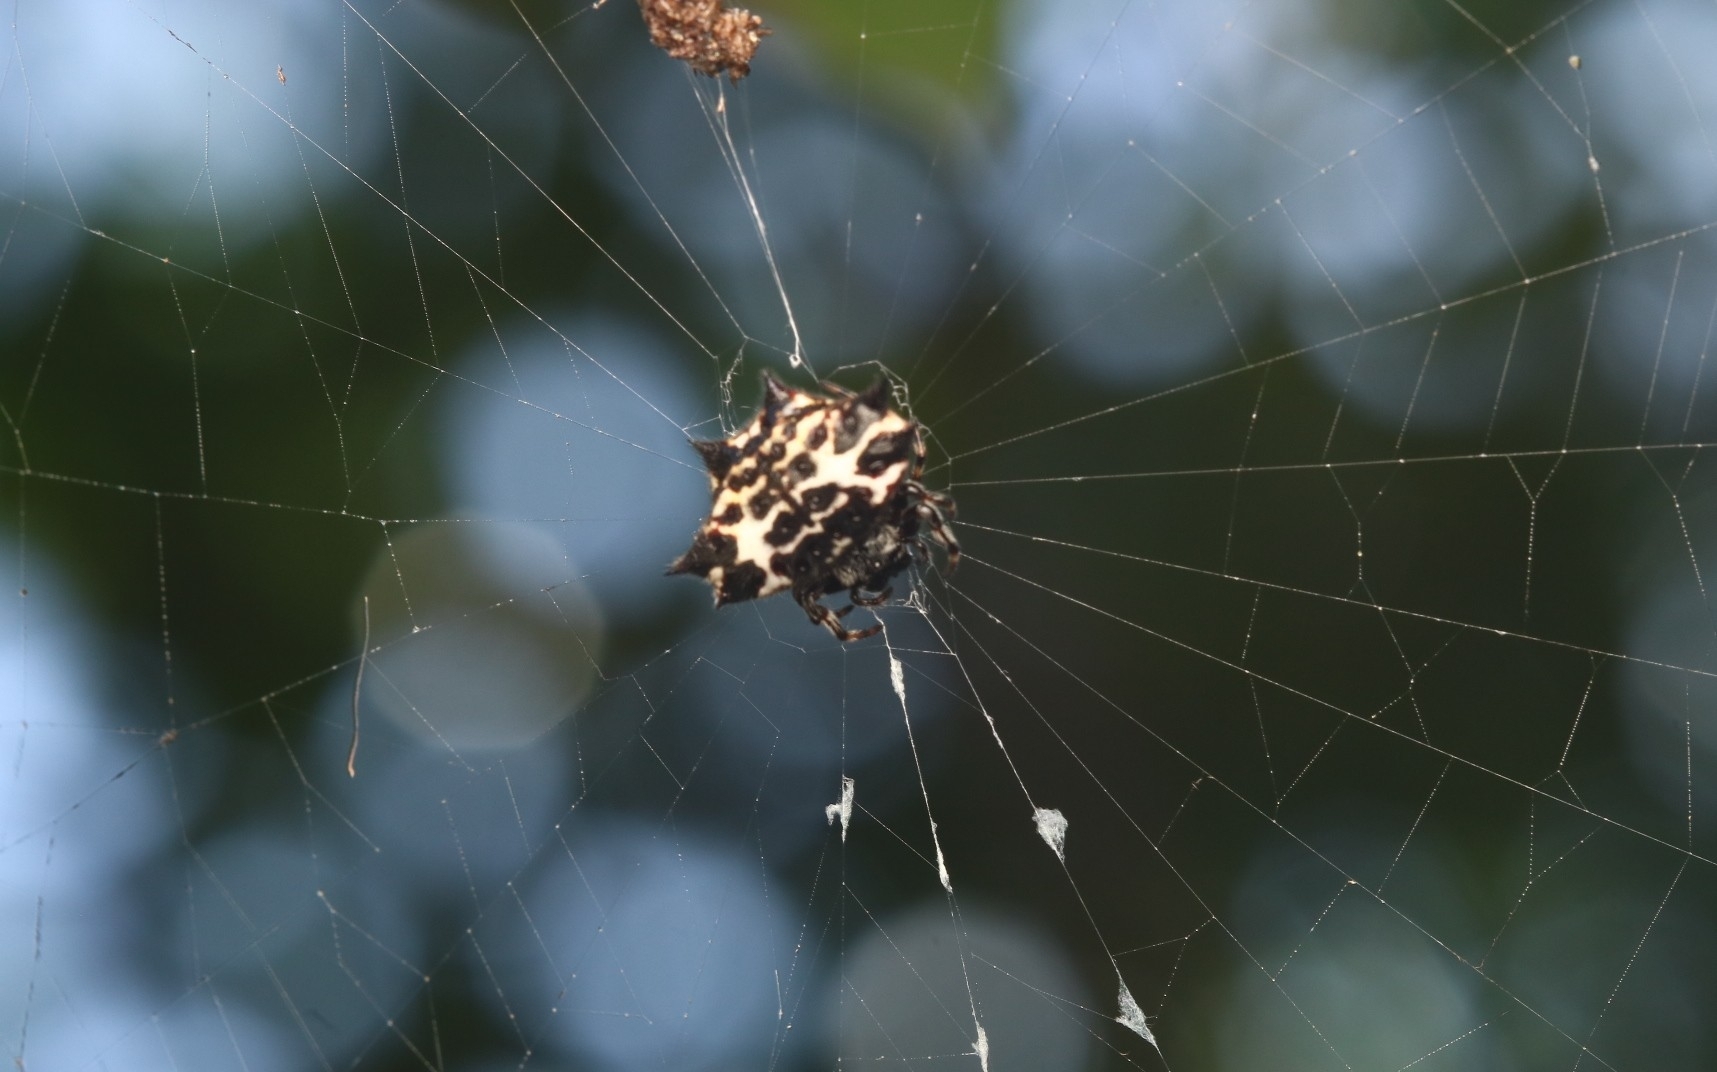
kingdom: Animalia
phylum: Arthropoda
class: Arachnida
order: Araneae
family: Araneidae
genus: Gasteracantha
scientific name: Gasteracantha cancriformis
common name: Orb weavers
